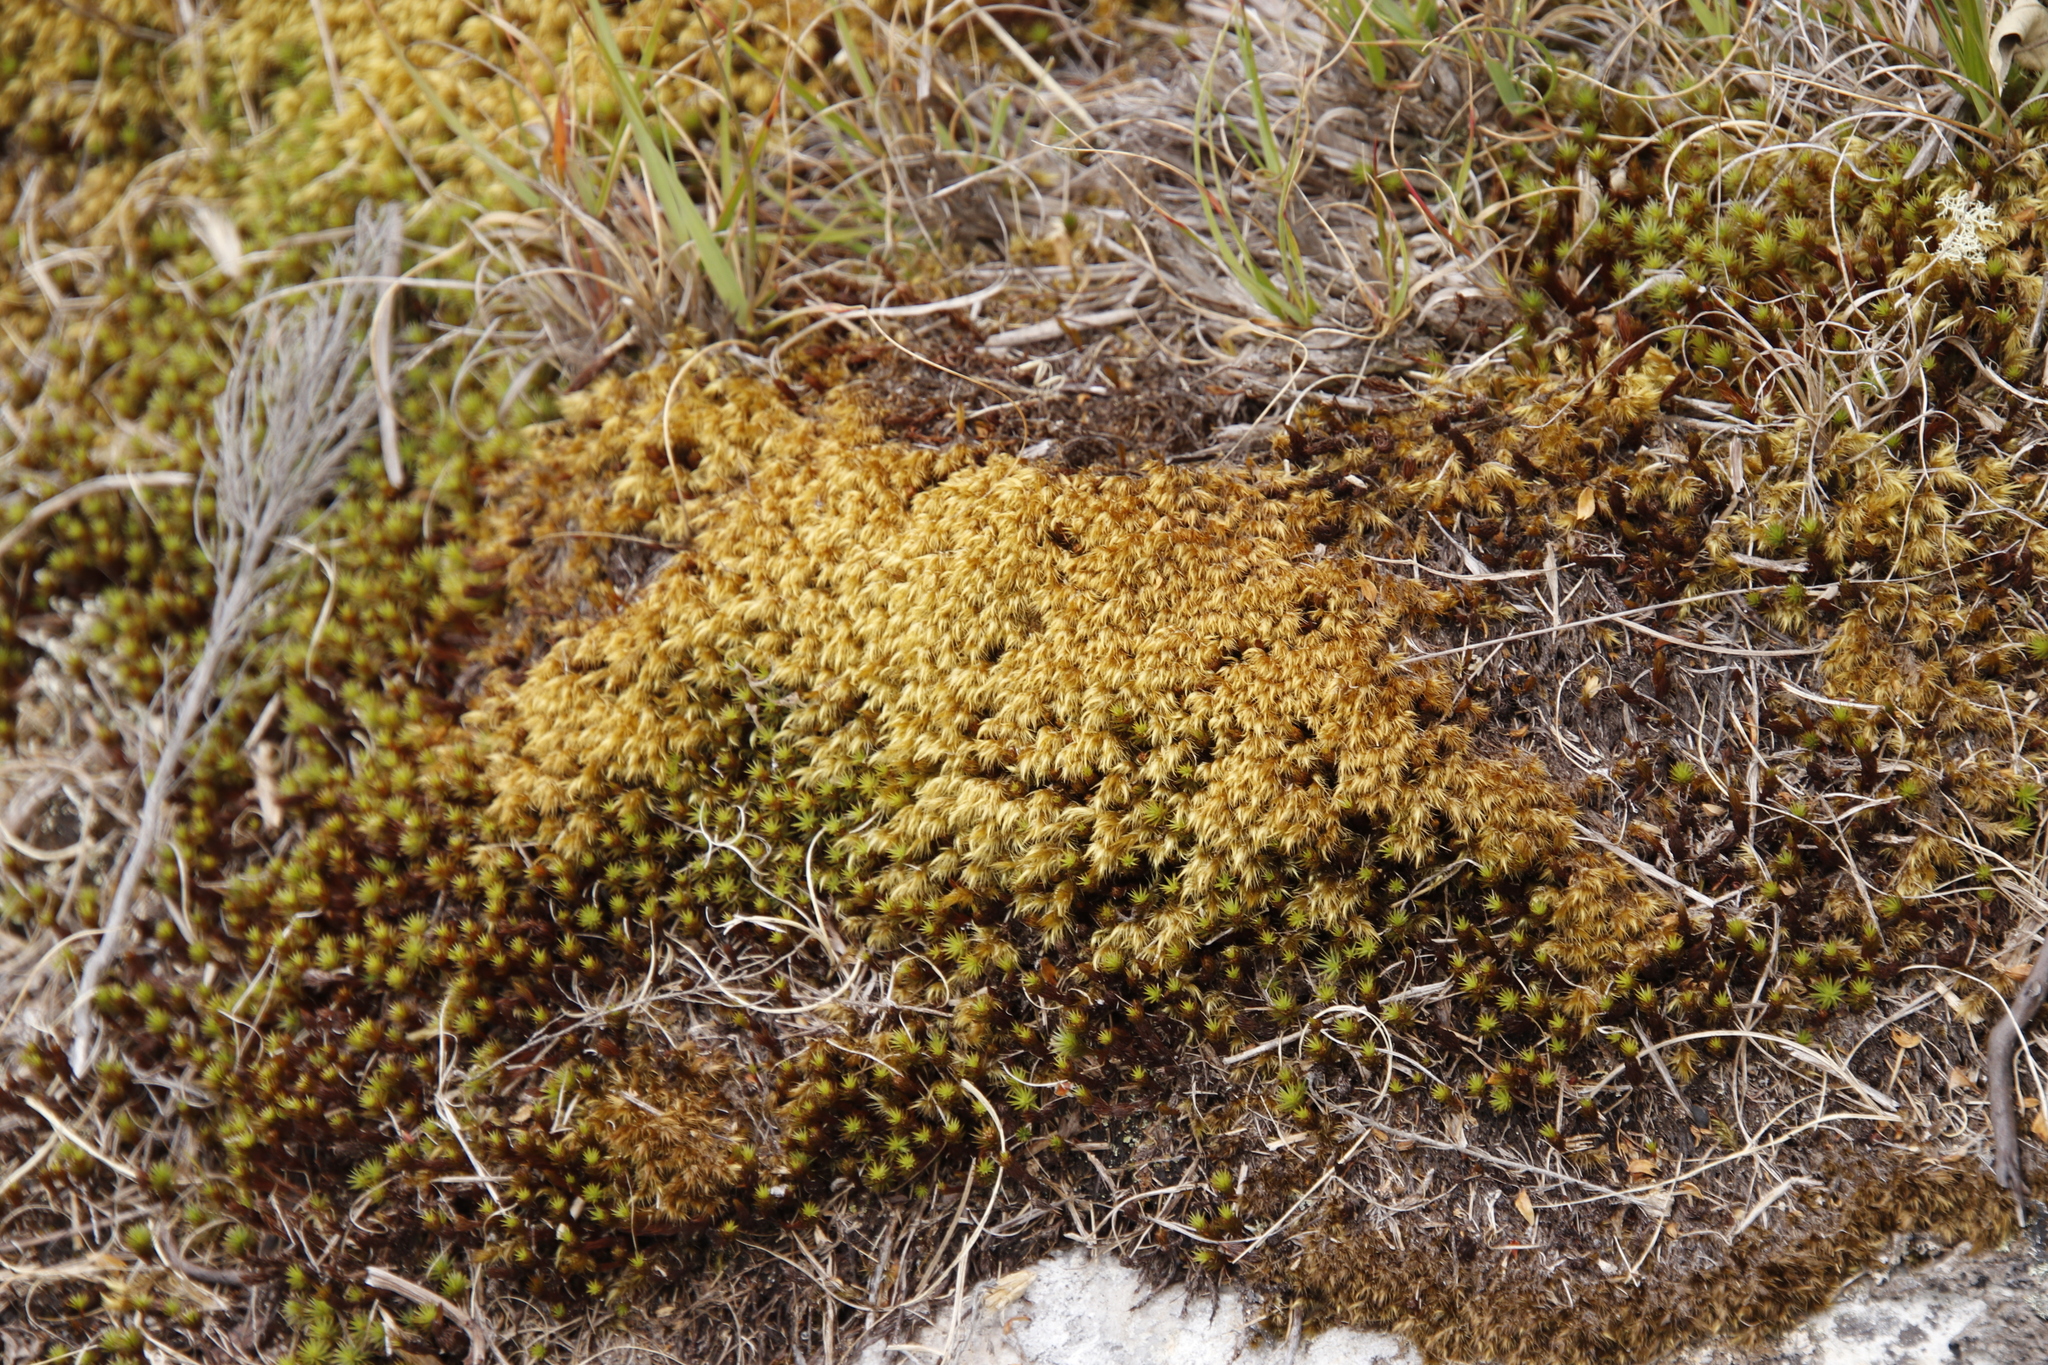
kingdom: Plantae
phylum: Bryophyta
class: Bryopsida
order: Dicranales
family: Dicranaceae
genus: Dicranoloma
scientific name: Dicranoloma billardieri
